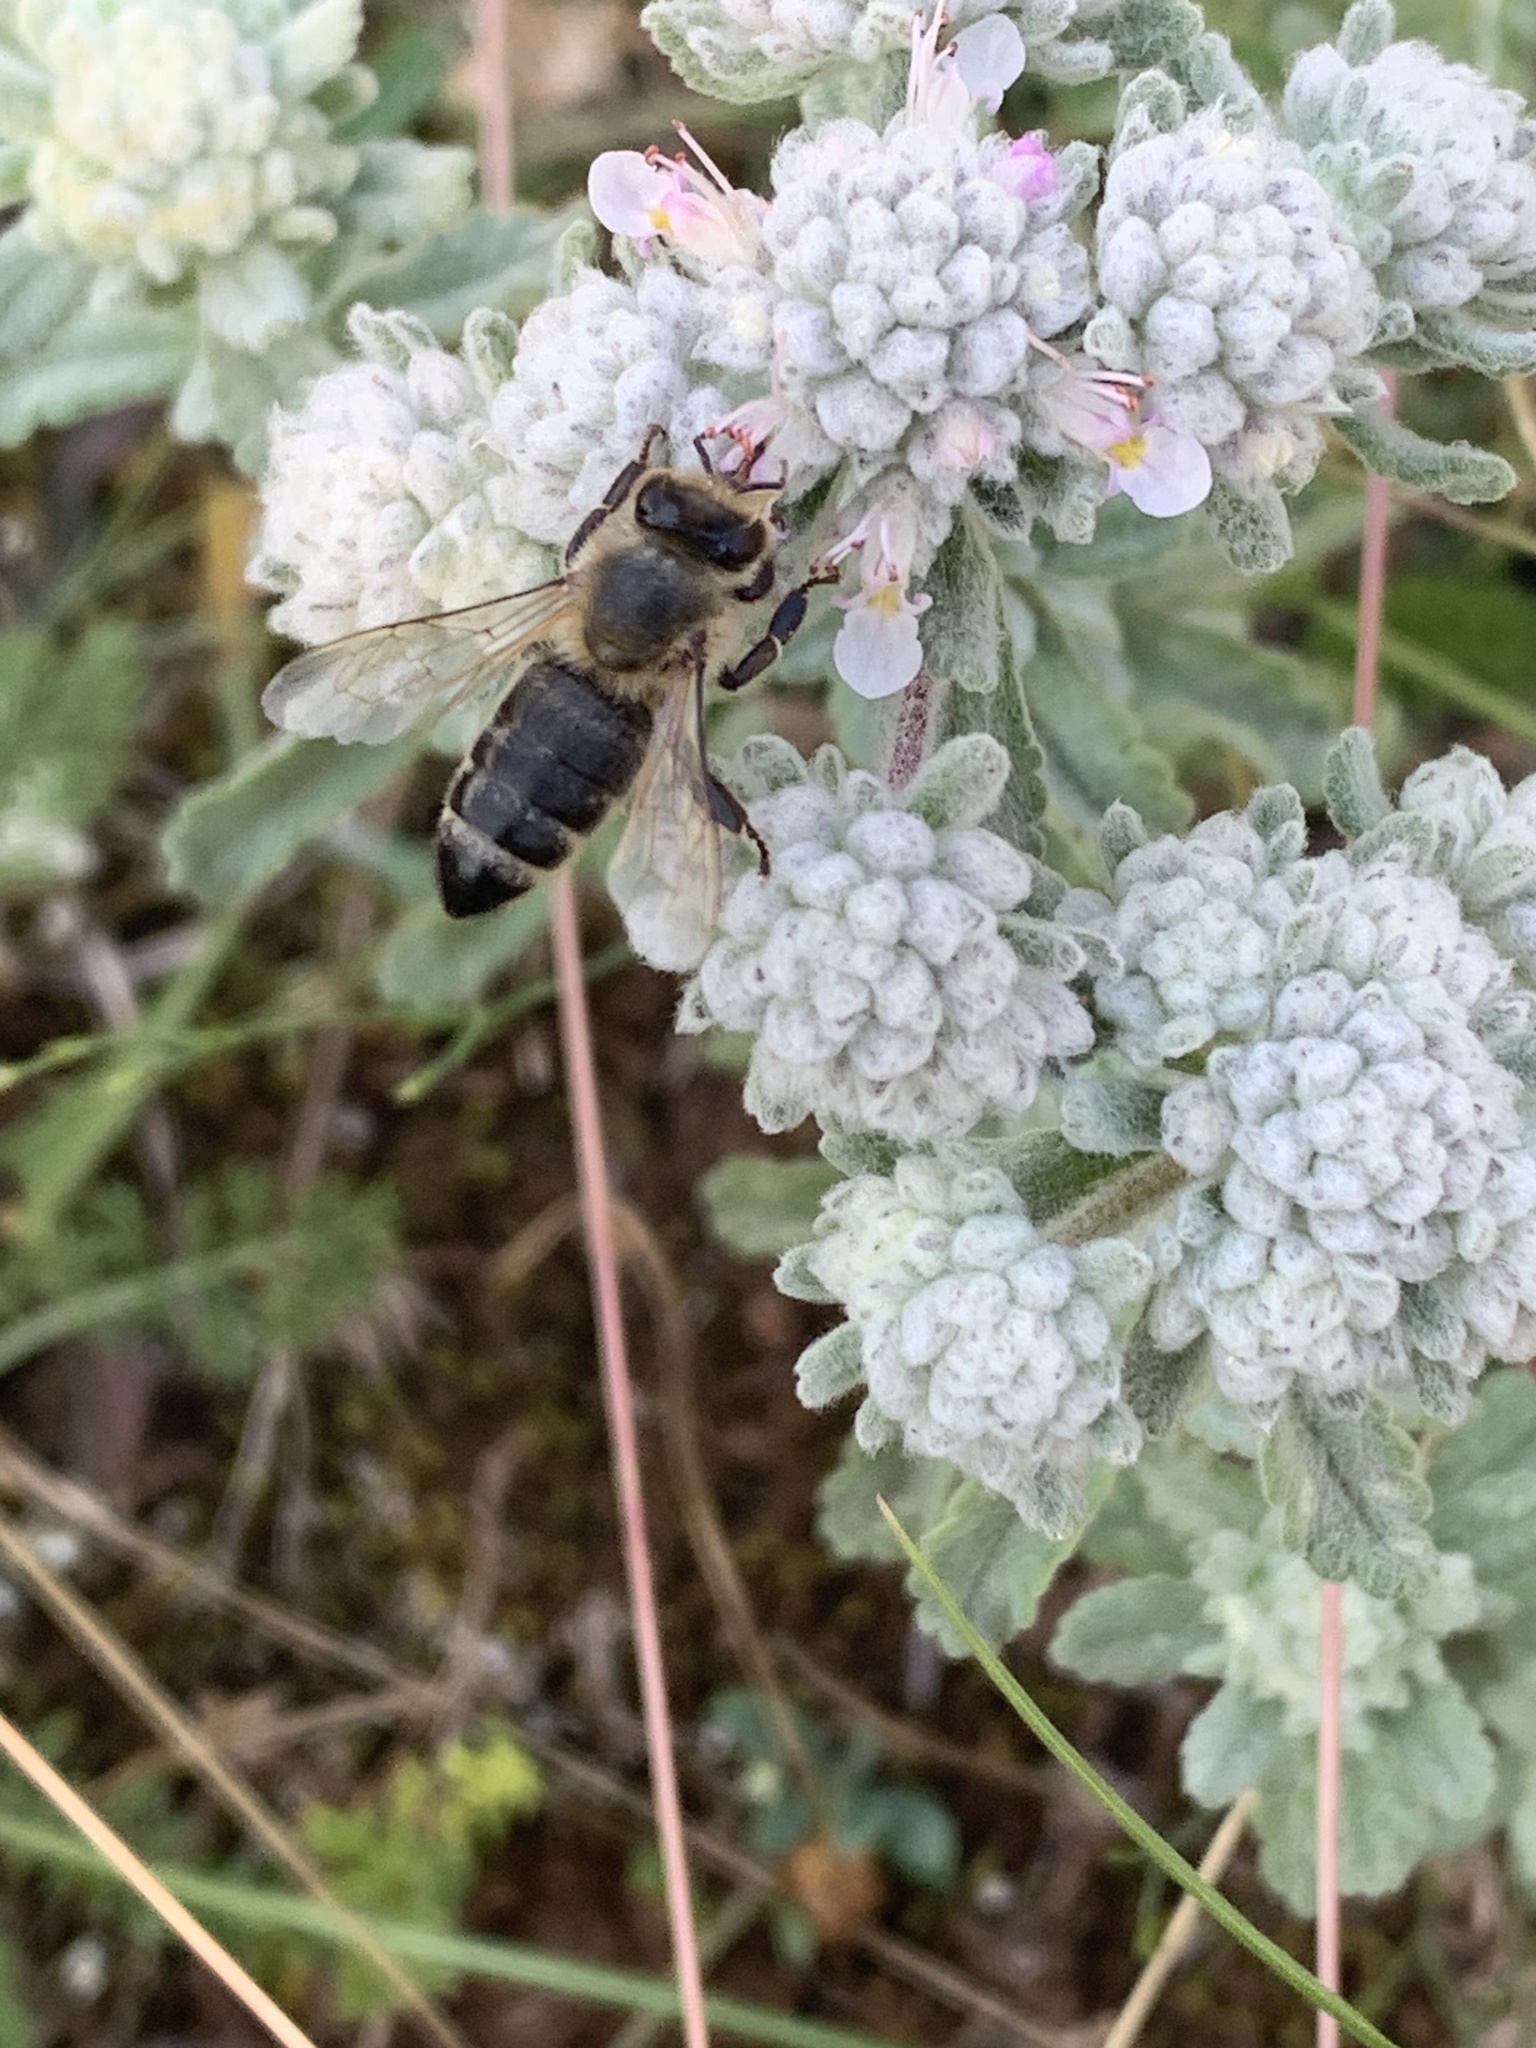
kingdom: Animalia
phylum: Arthropoda
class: Insecta
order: Hymenoptera
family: Apidae
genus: Apis
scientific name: Apis mellifera
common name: Honey bee
